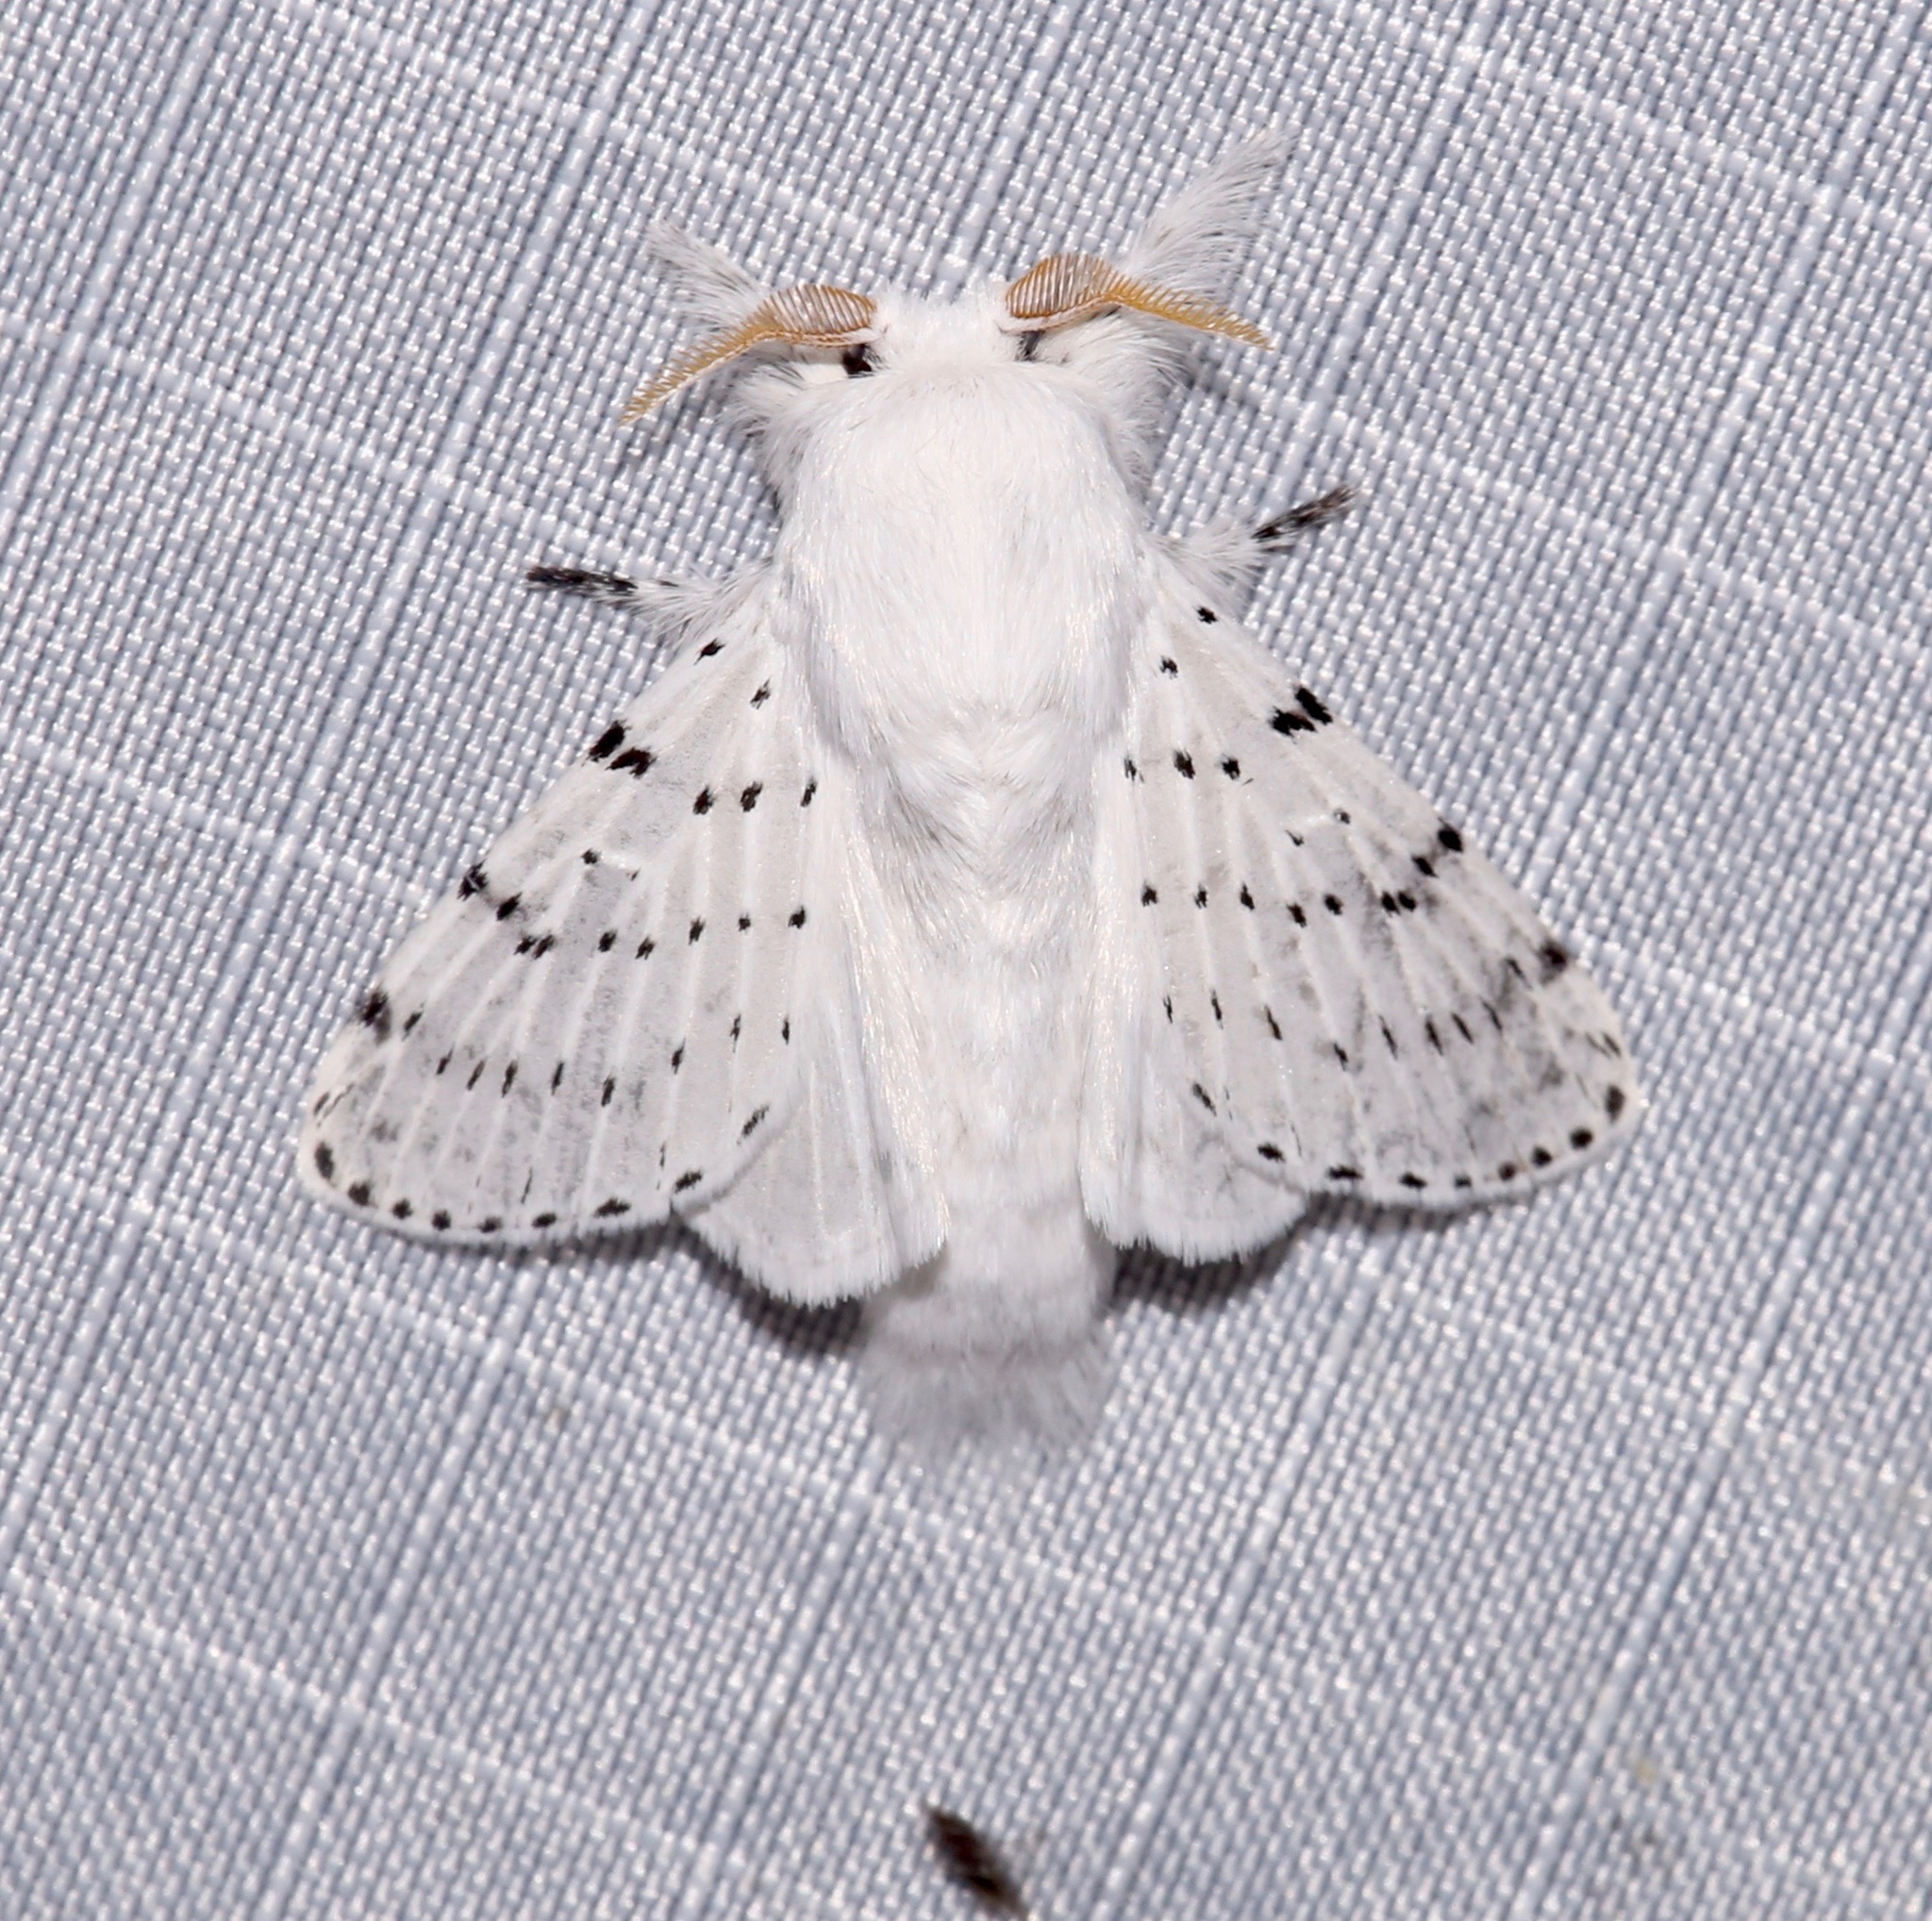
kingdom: Animalia
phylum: Arthropoda
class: Insecta
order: Lepidoptera
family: Lasiocampidae
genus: Artace
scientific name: Artace cribrarius
